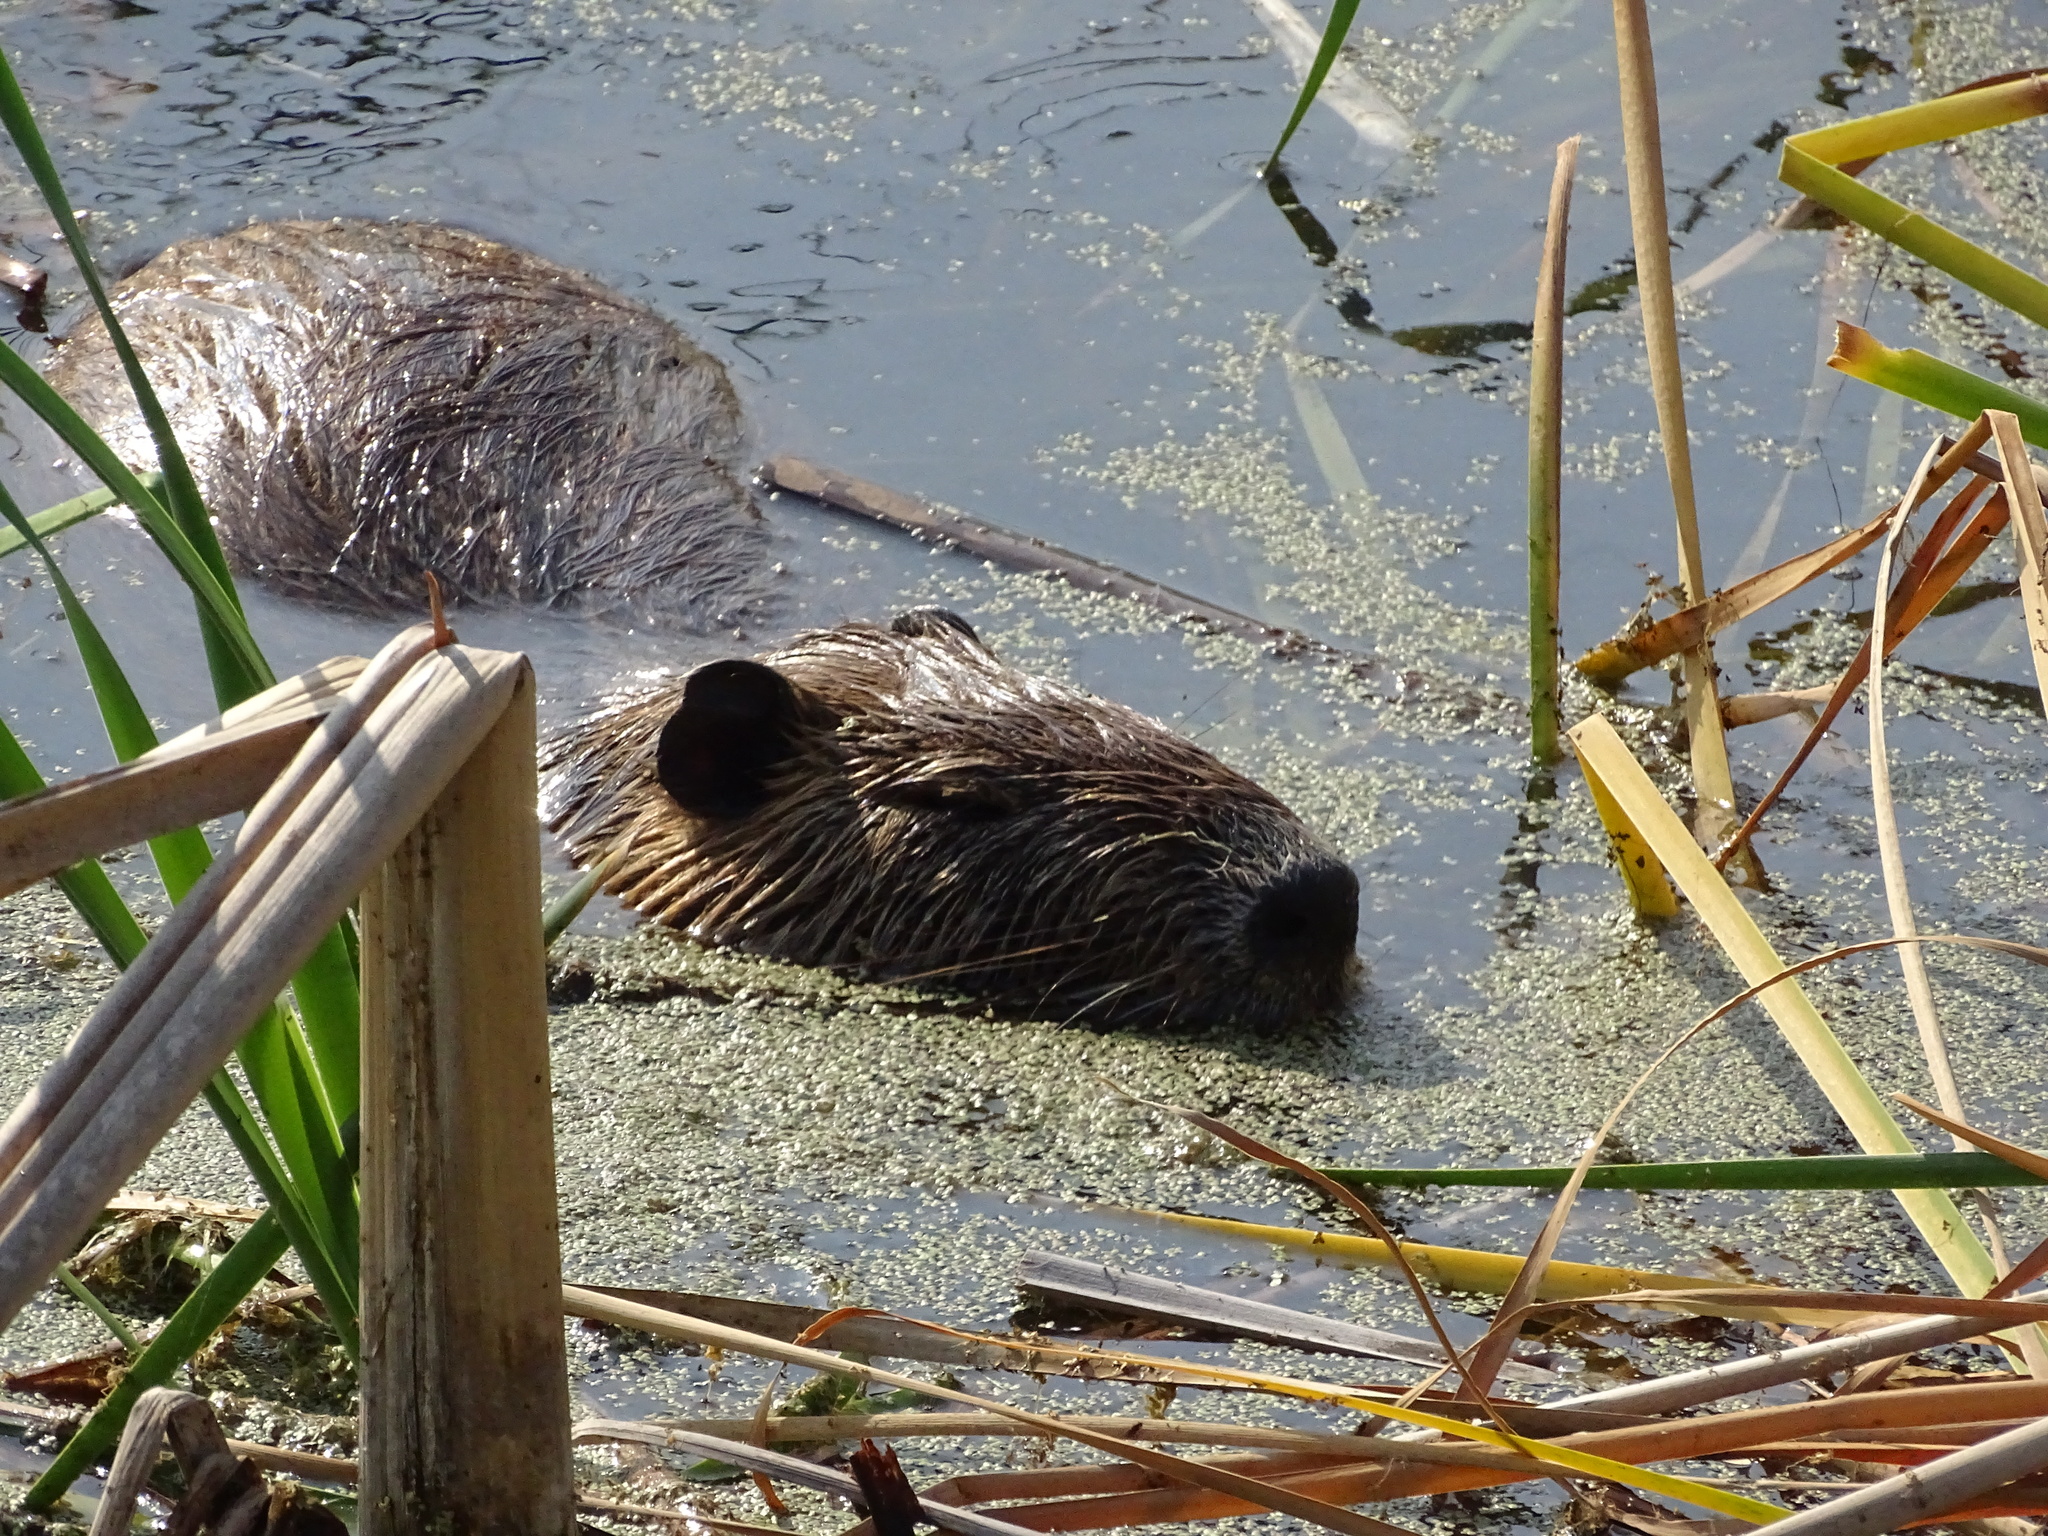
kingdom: Animalia
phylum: Chordata
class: Mammalia
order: Rodentia
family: Myocastoridae
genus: Myocastor
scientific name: Myocastor coypus
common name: Coypu
